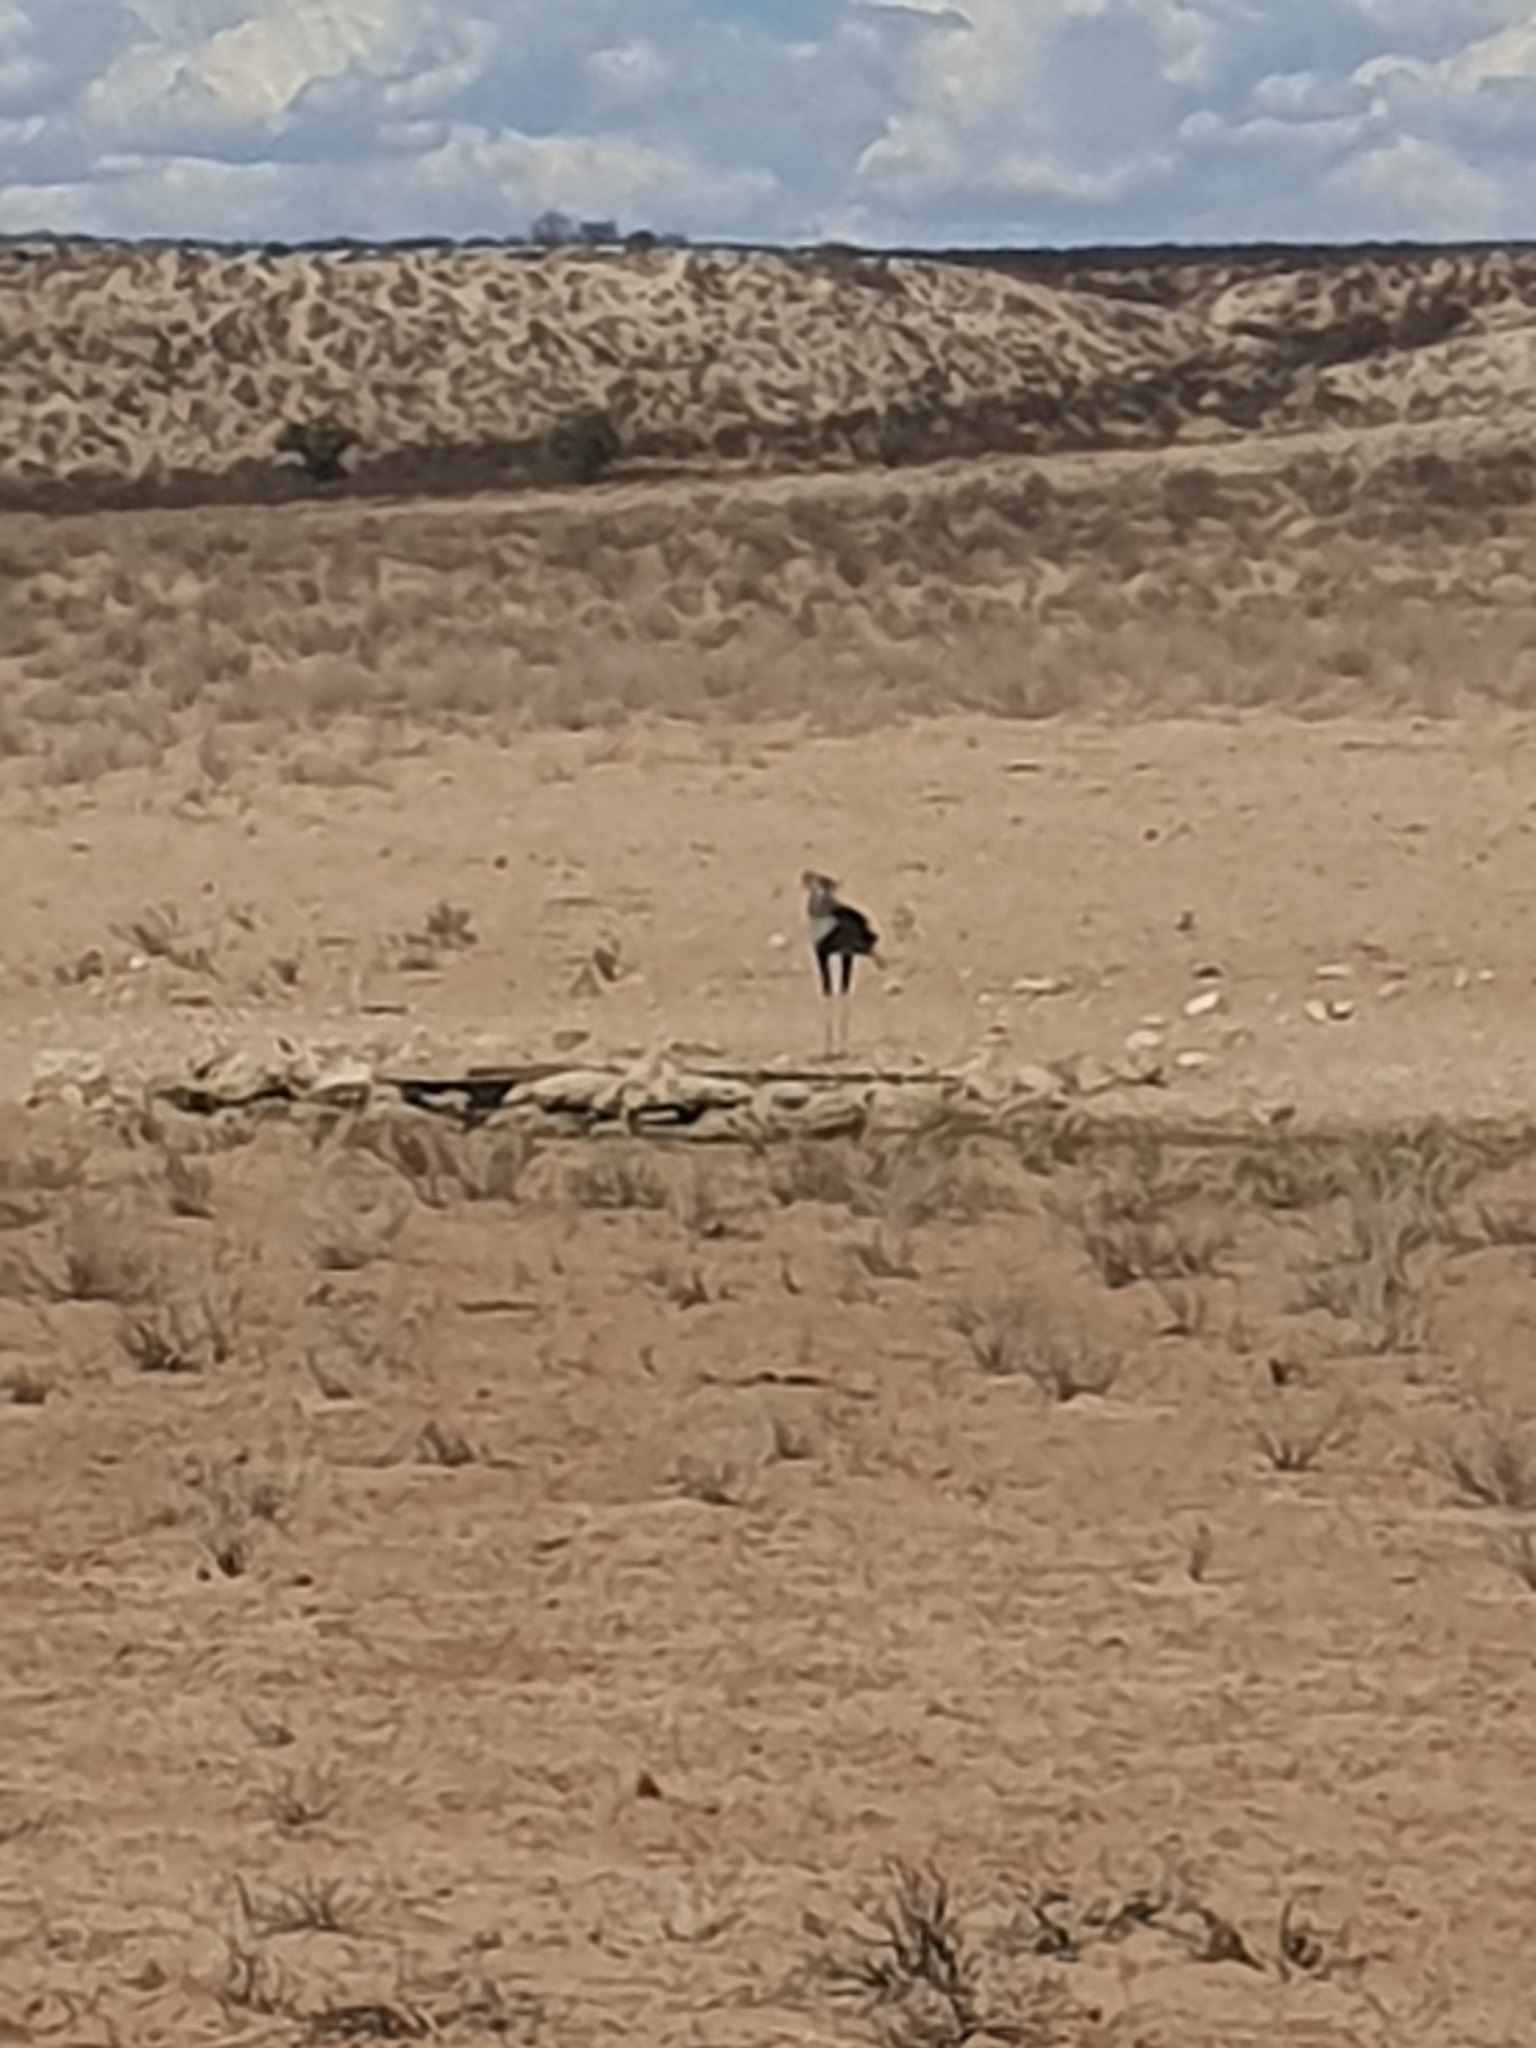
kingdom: Animalia
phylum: Chordata
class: Aves
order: Accipitriformes
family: Sagittariidae
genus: Sagittarius
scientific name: Sagittarius serpentarius
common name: Secretarybird
